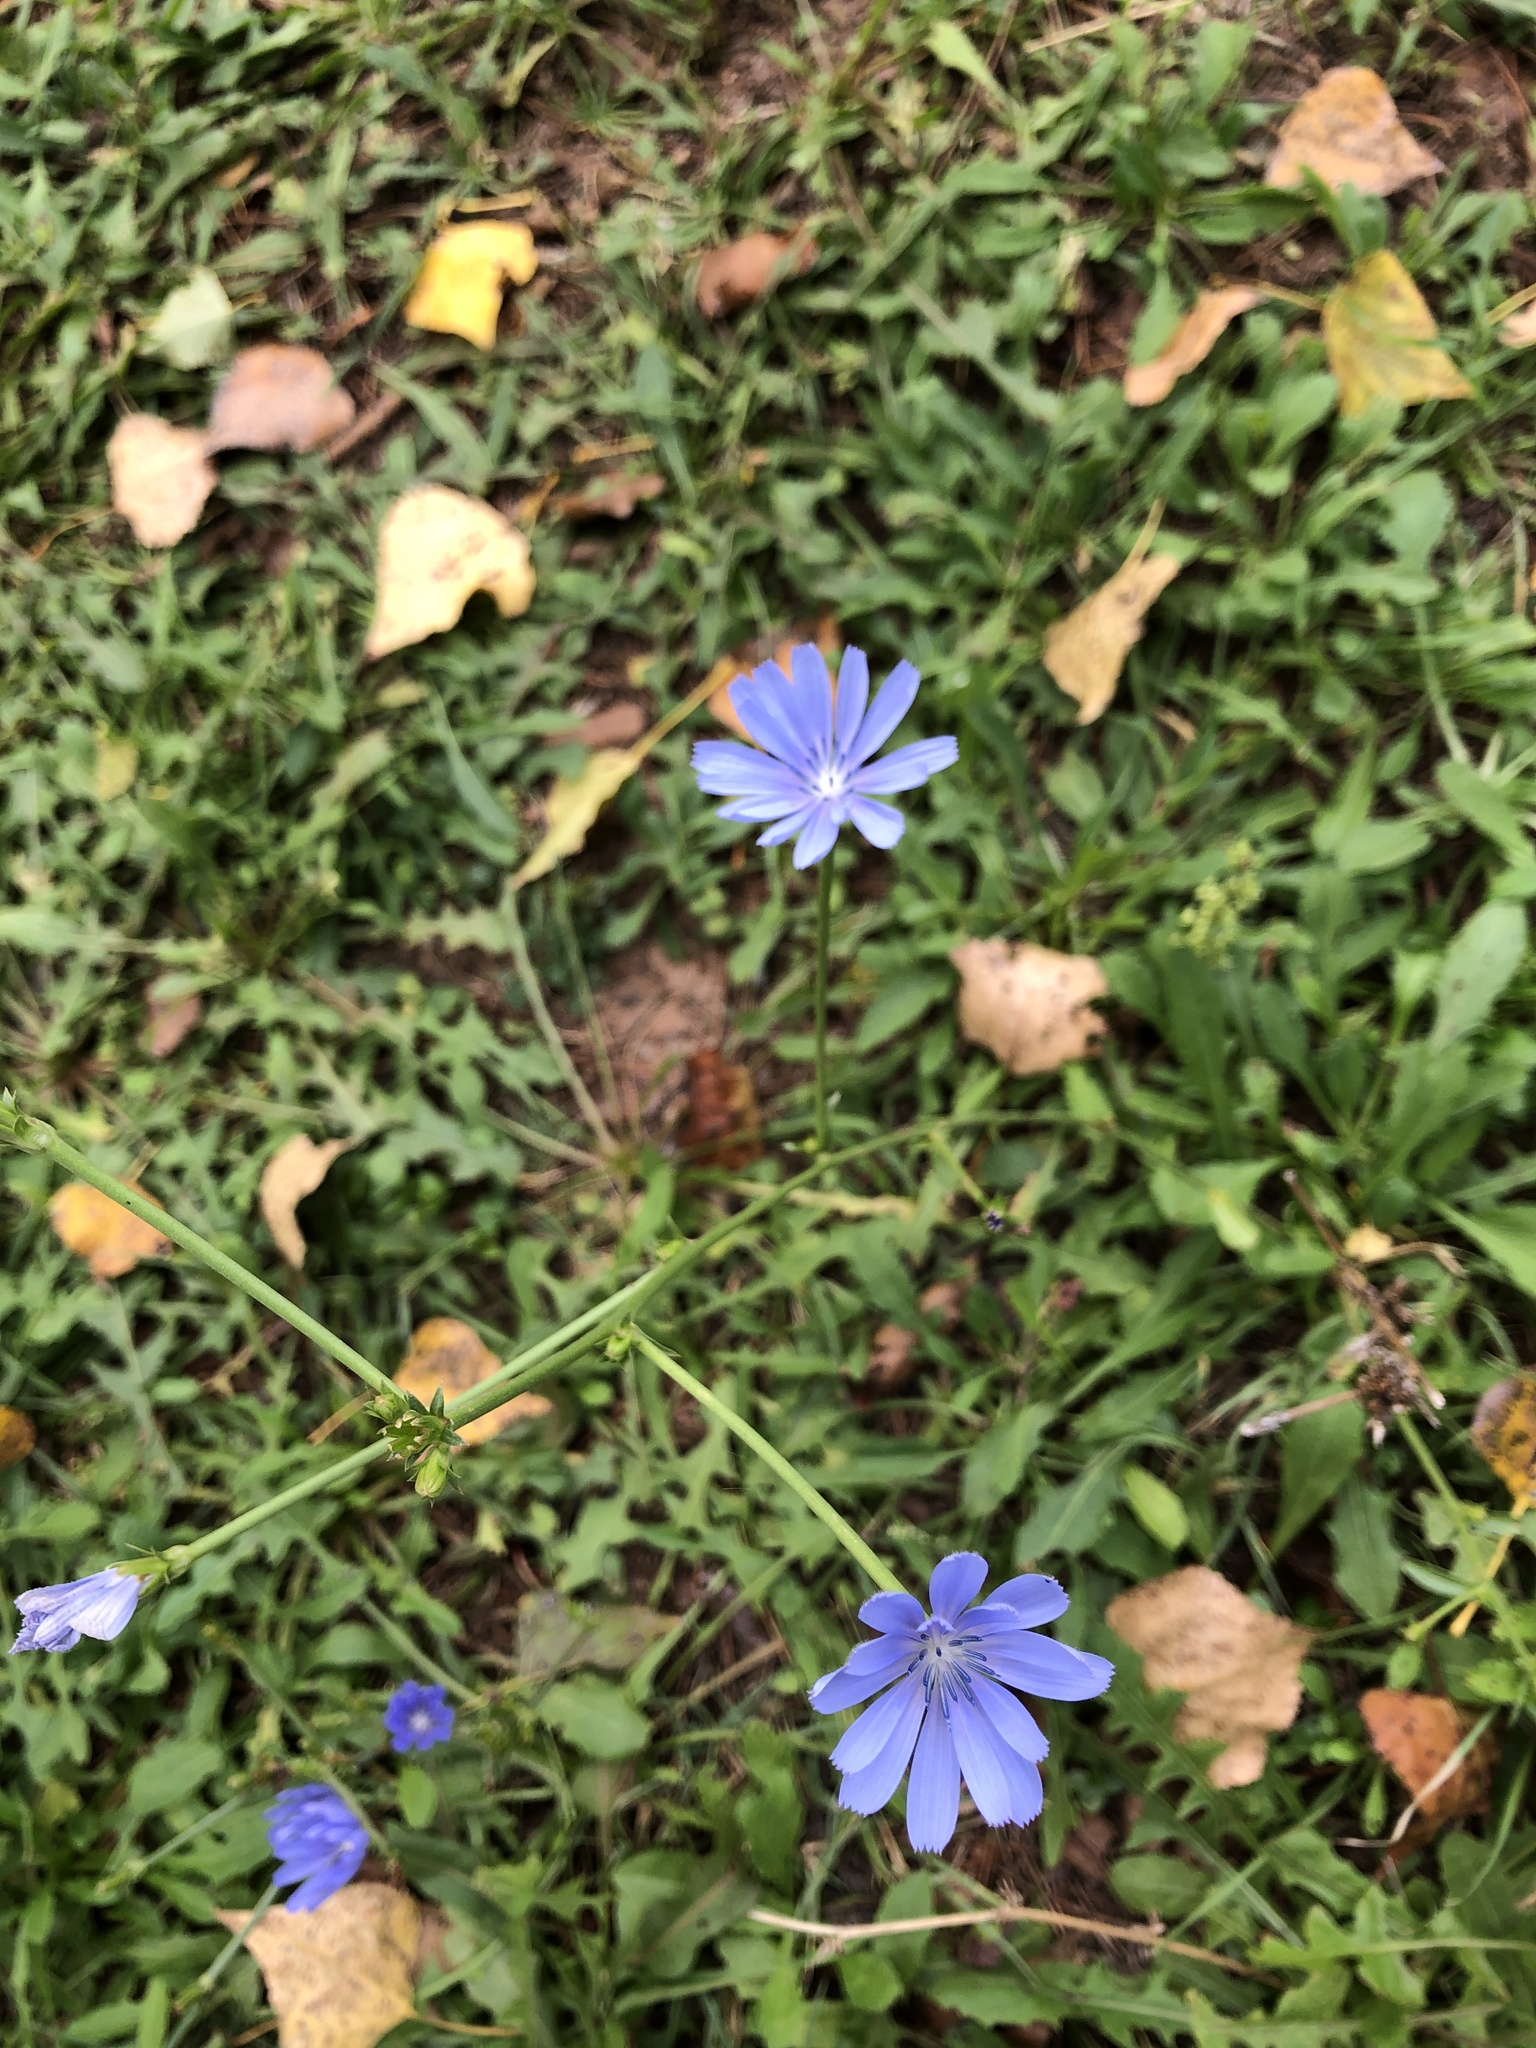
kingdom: Plantae
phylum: Tracheophyta
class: Magnoliopsida
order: Asterales
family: Asteraceae
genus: Cichorium
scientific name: Cichorium intybus
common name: Chicory
